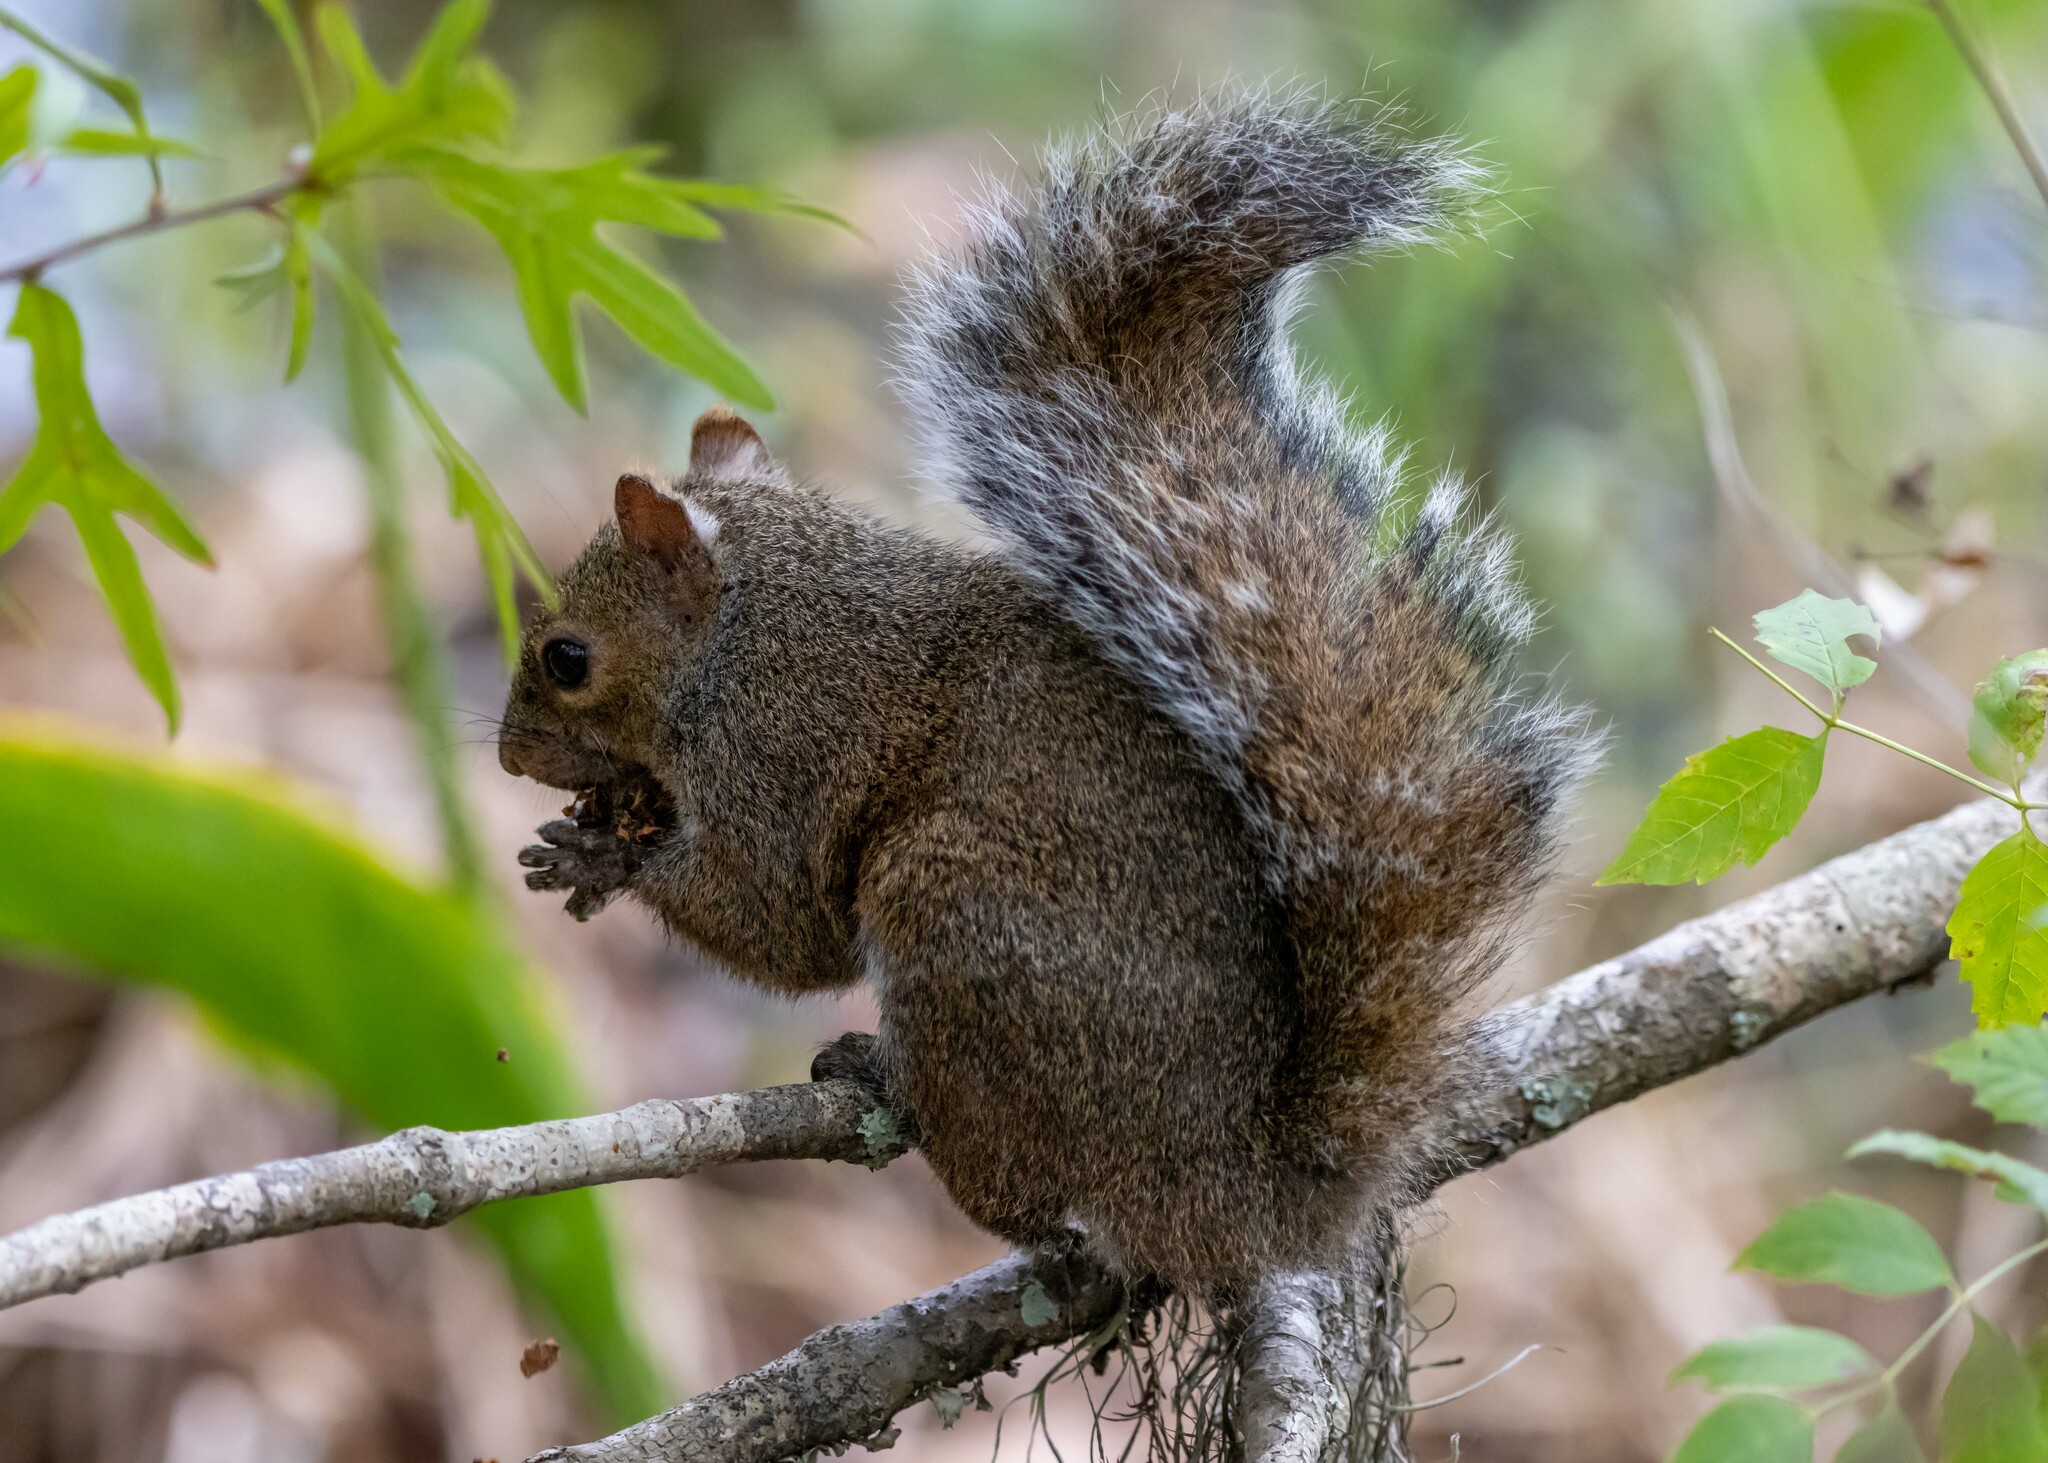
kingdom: Animalia
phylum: Chordata
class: Mammalia
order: Rodentia
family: Sciuridae
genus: Sciurus
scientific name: Sciurus carolinensis
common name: Eastern gray squirrel
